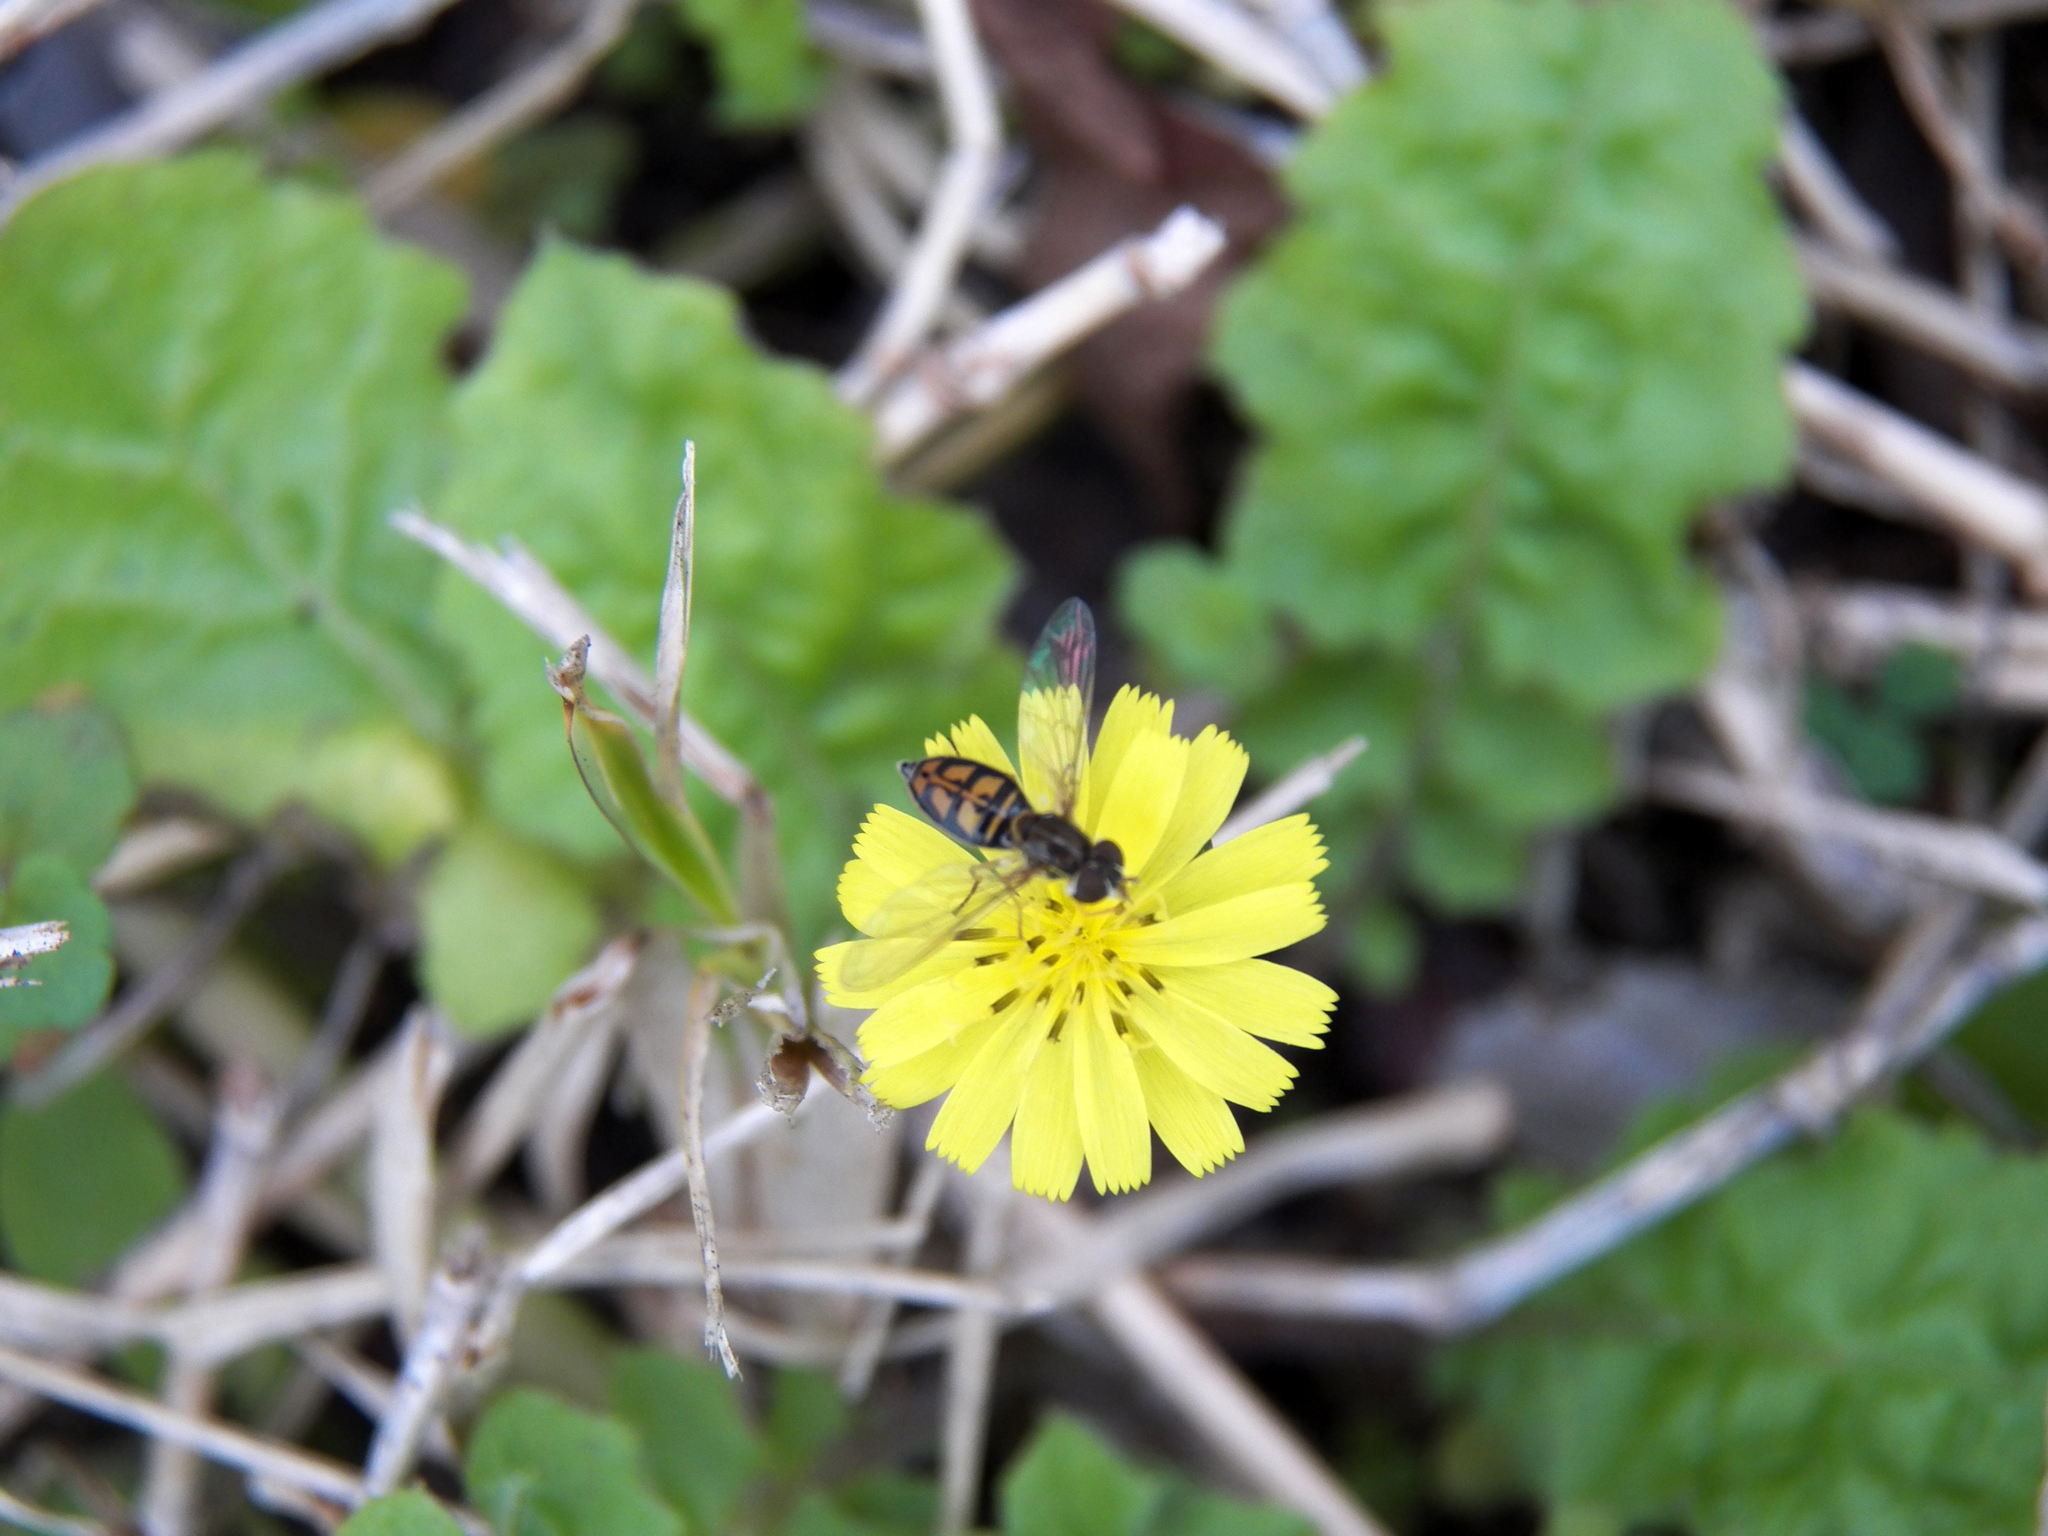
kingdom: Plantae
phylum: Tracheophyta
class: Magnoliopsida
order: Asterales
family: Asteraceae
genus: Youngia
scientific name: Youngia japonica
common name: Oriental false hawksbeard
